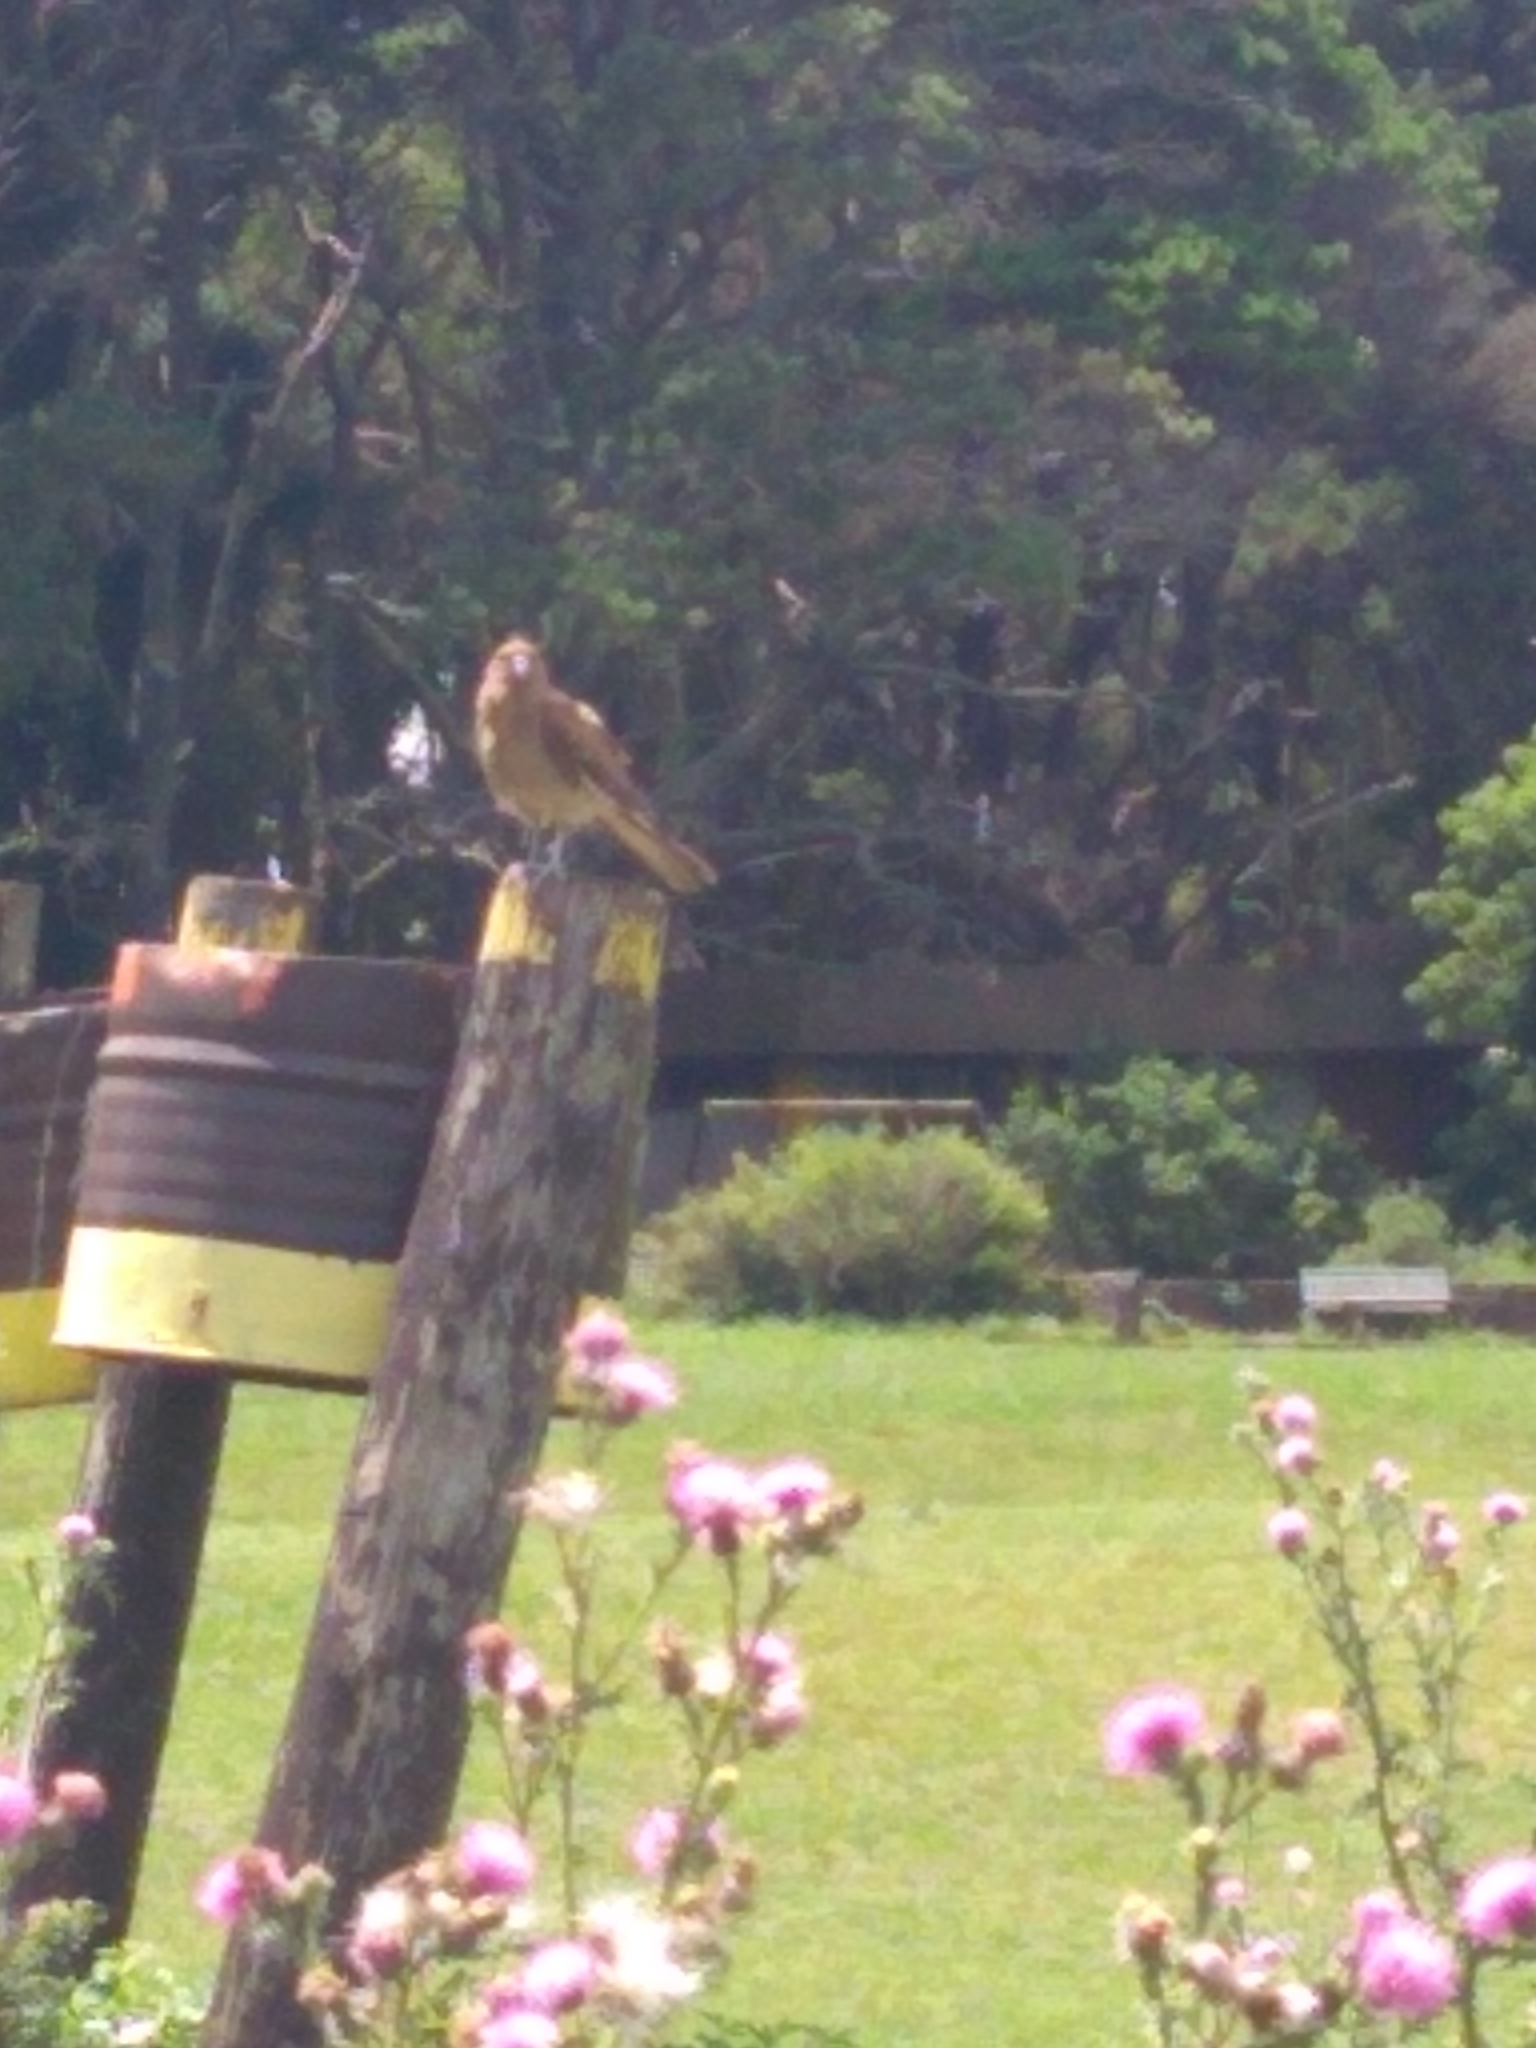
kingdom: Animalia
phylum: Chordata
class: Aves
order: Falconiformes
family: Falconidae
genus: Daptrius
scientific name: Daptrius
